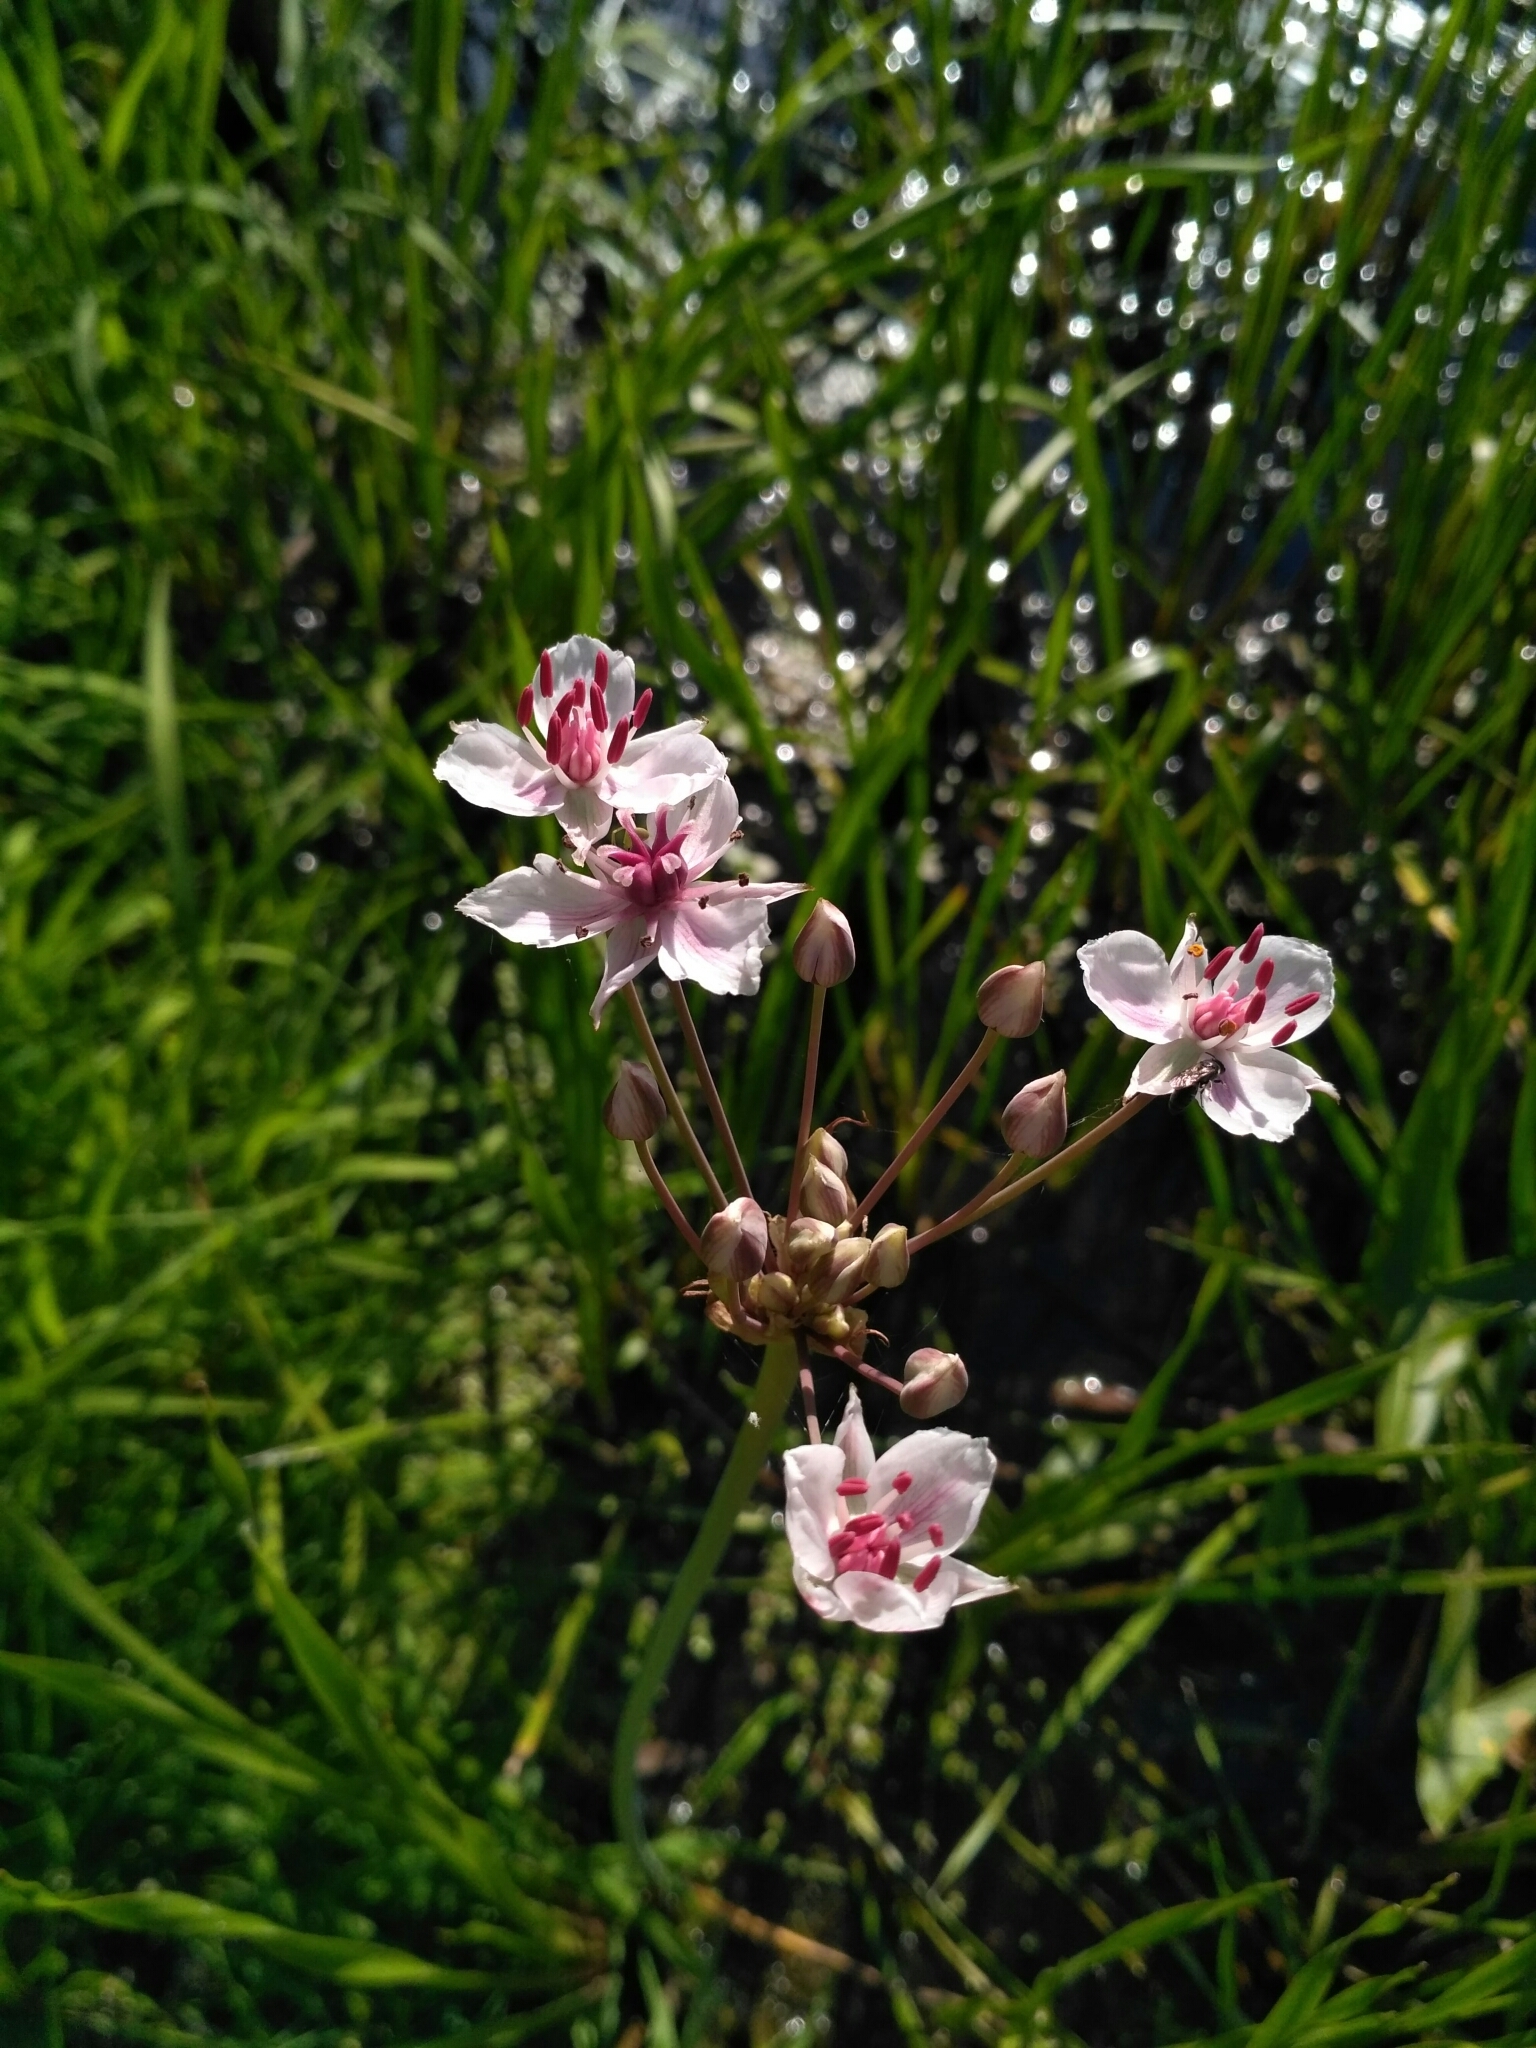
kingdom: Plantae
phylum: Tracheophyta
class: Liliopsida
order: Alismatales
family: Butomaceae
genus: Butomus
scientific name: Butomus umbellatus
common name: Flowering-rush
